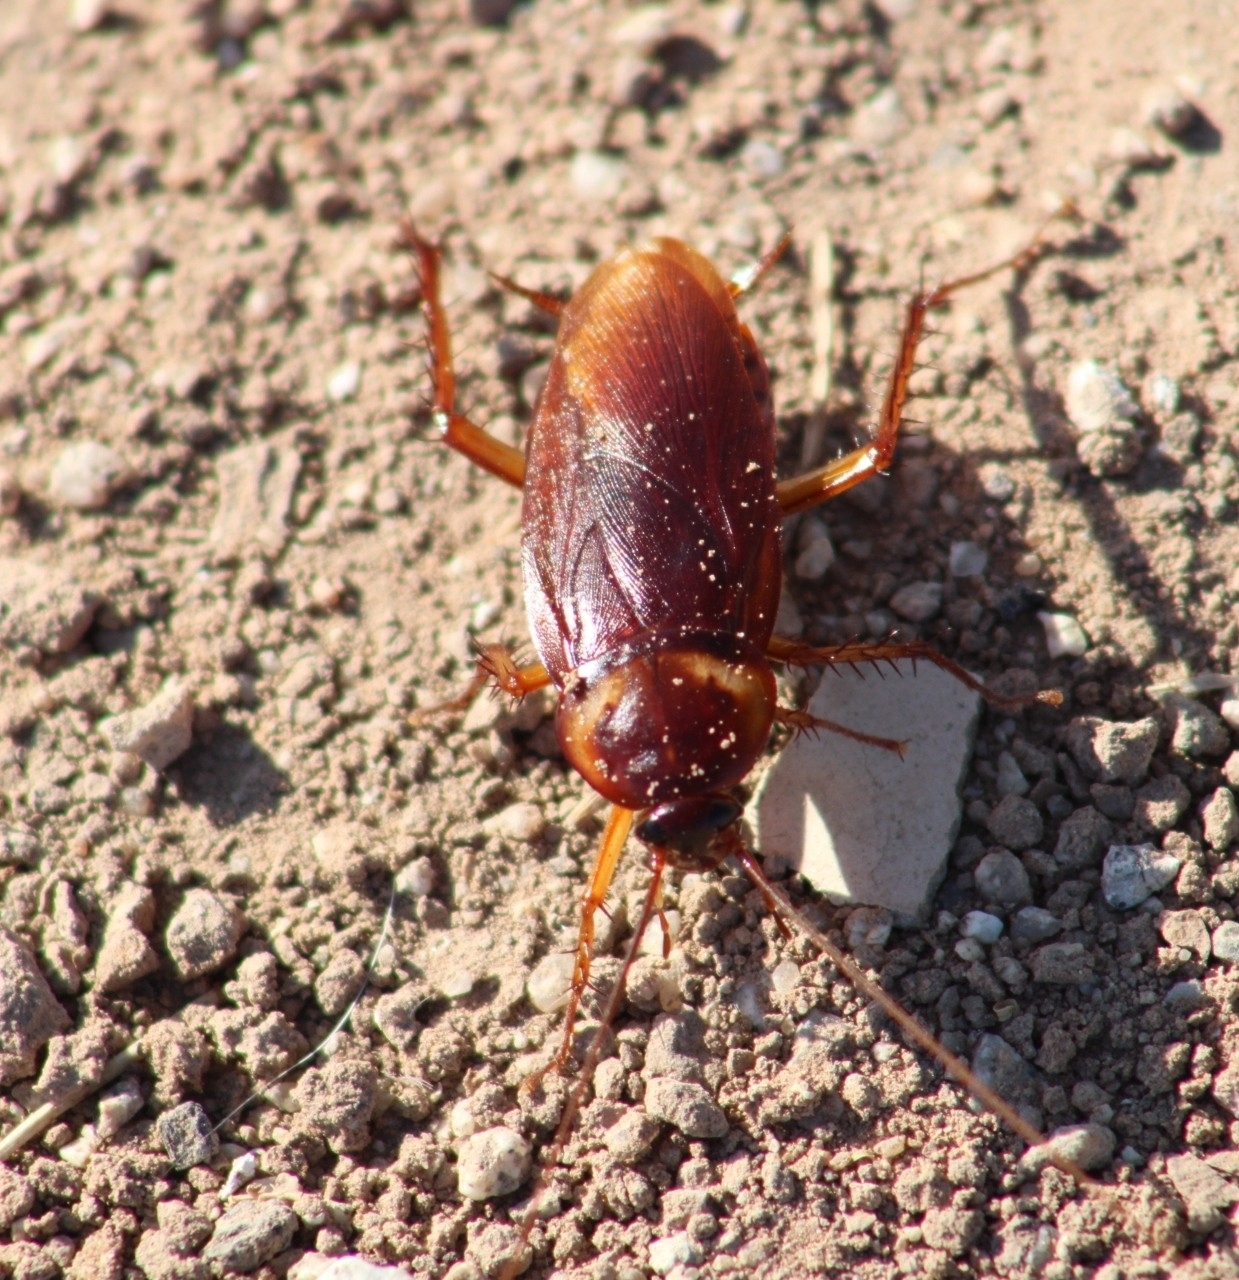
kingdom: Animalia
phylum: Arthropoda
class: Insecta
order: Blattodea
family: Blattidae
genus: Periplaneta
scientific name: Periplaneta americana
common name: American cockroach
